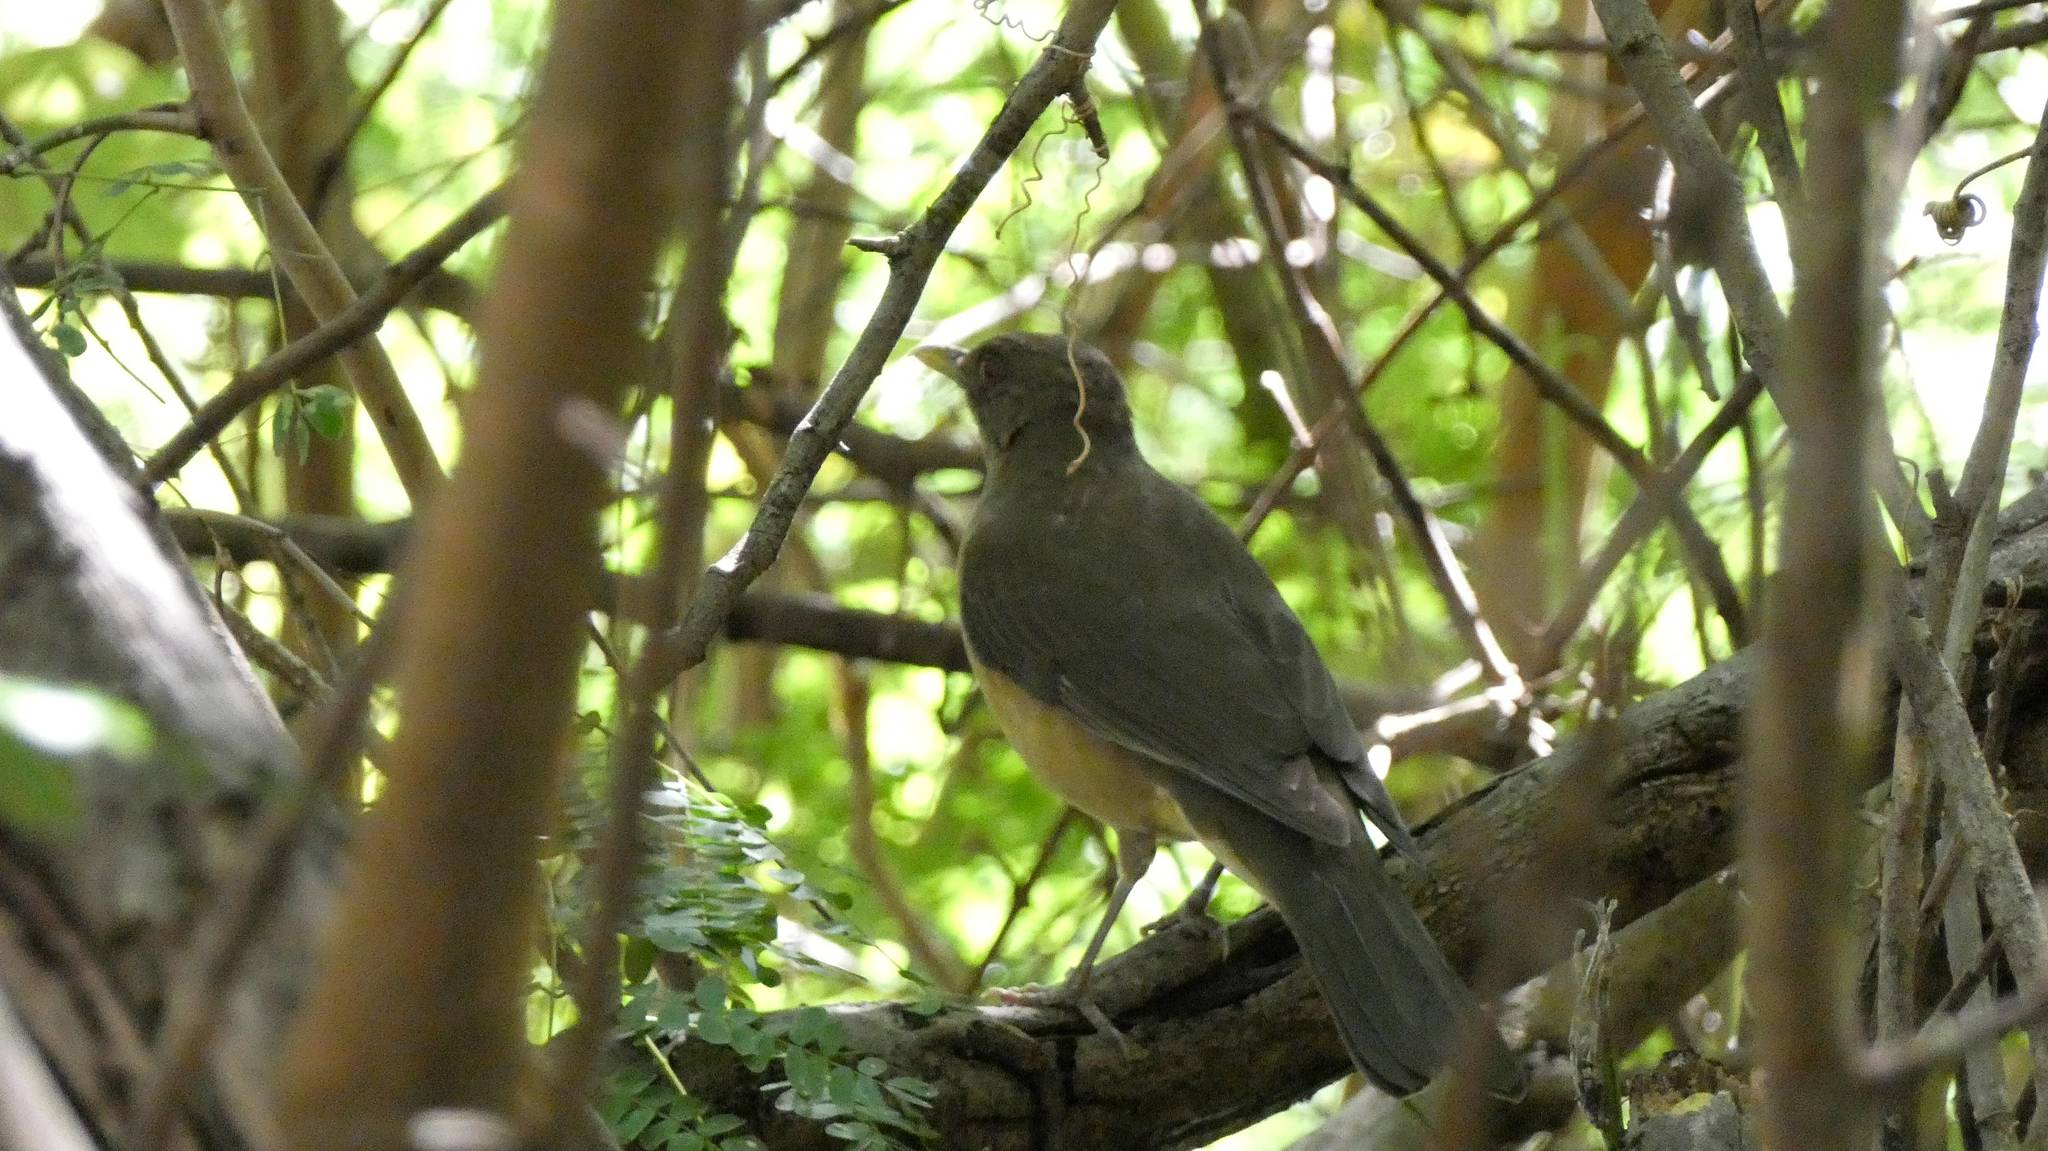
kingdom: Animalia
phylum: Chordata
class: Aves
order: Passeriformes
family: Turdidae
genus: Turdus
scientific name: Turdus grayi
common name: Clay-colored thrush
